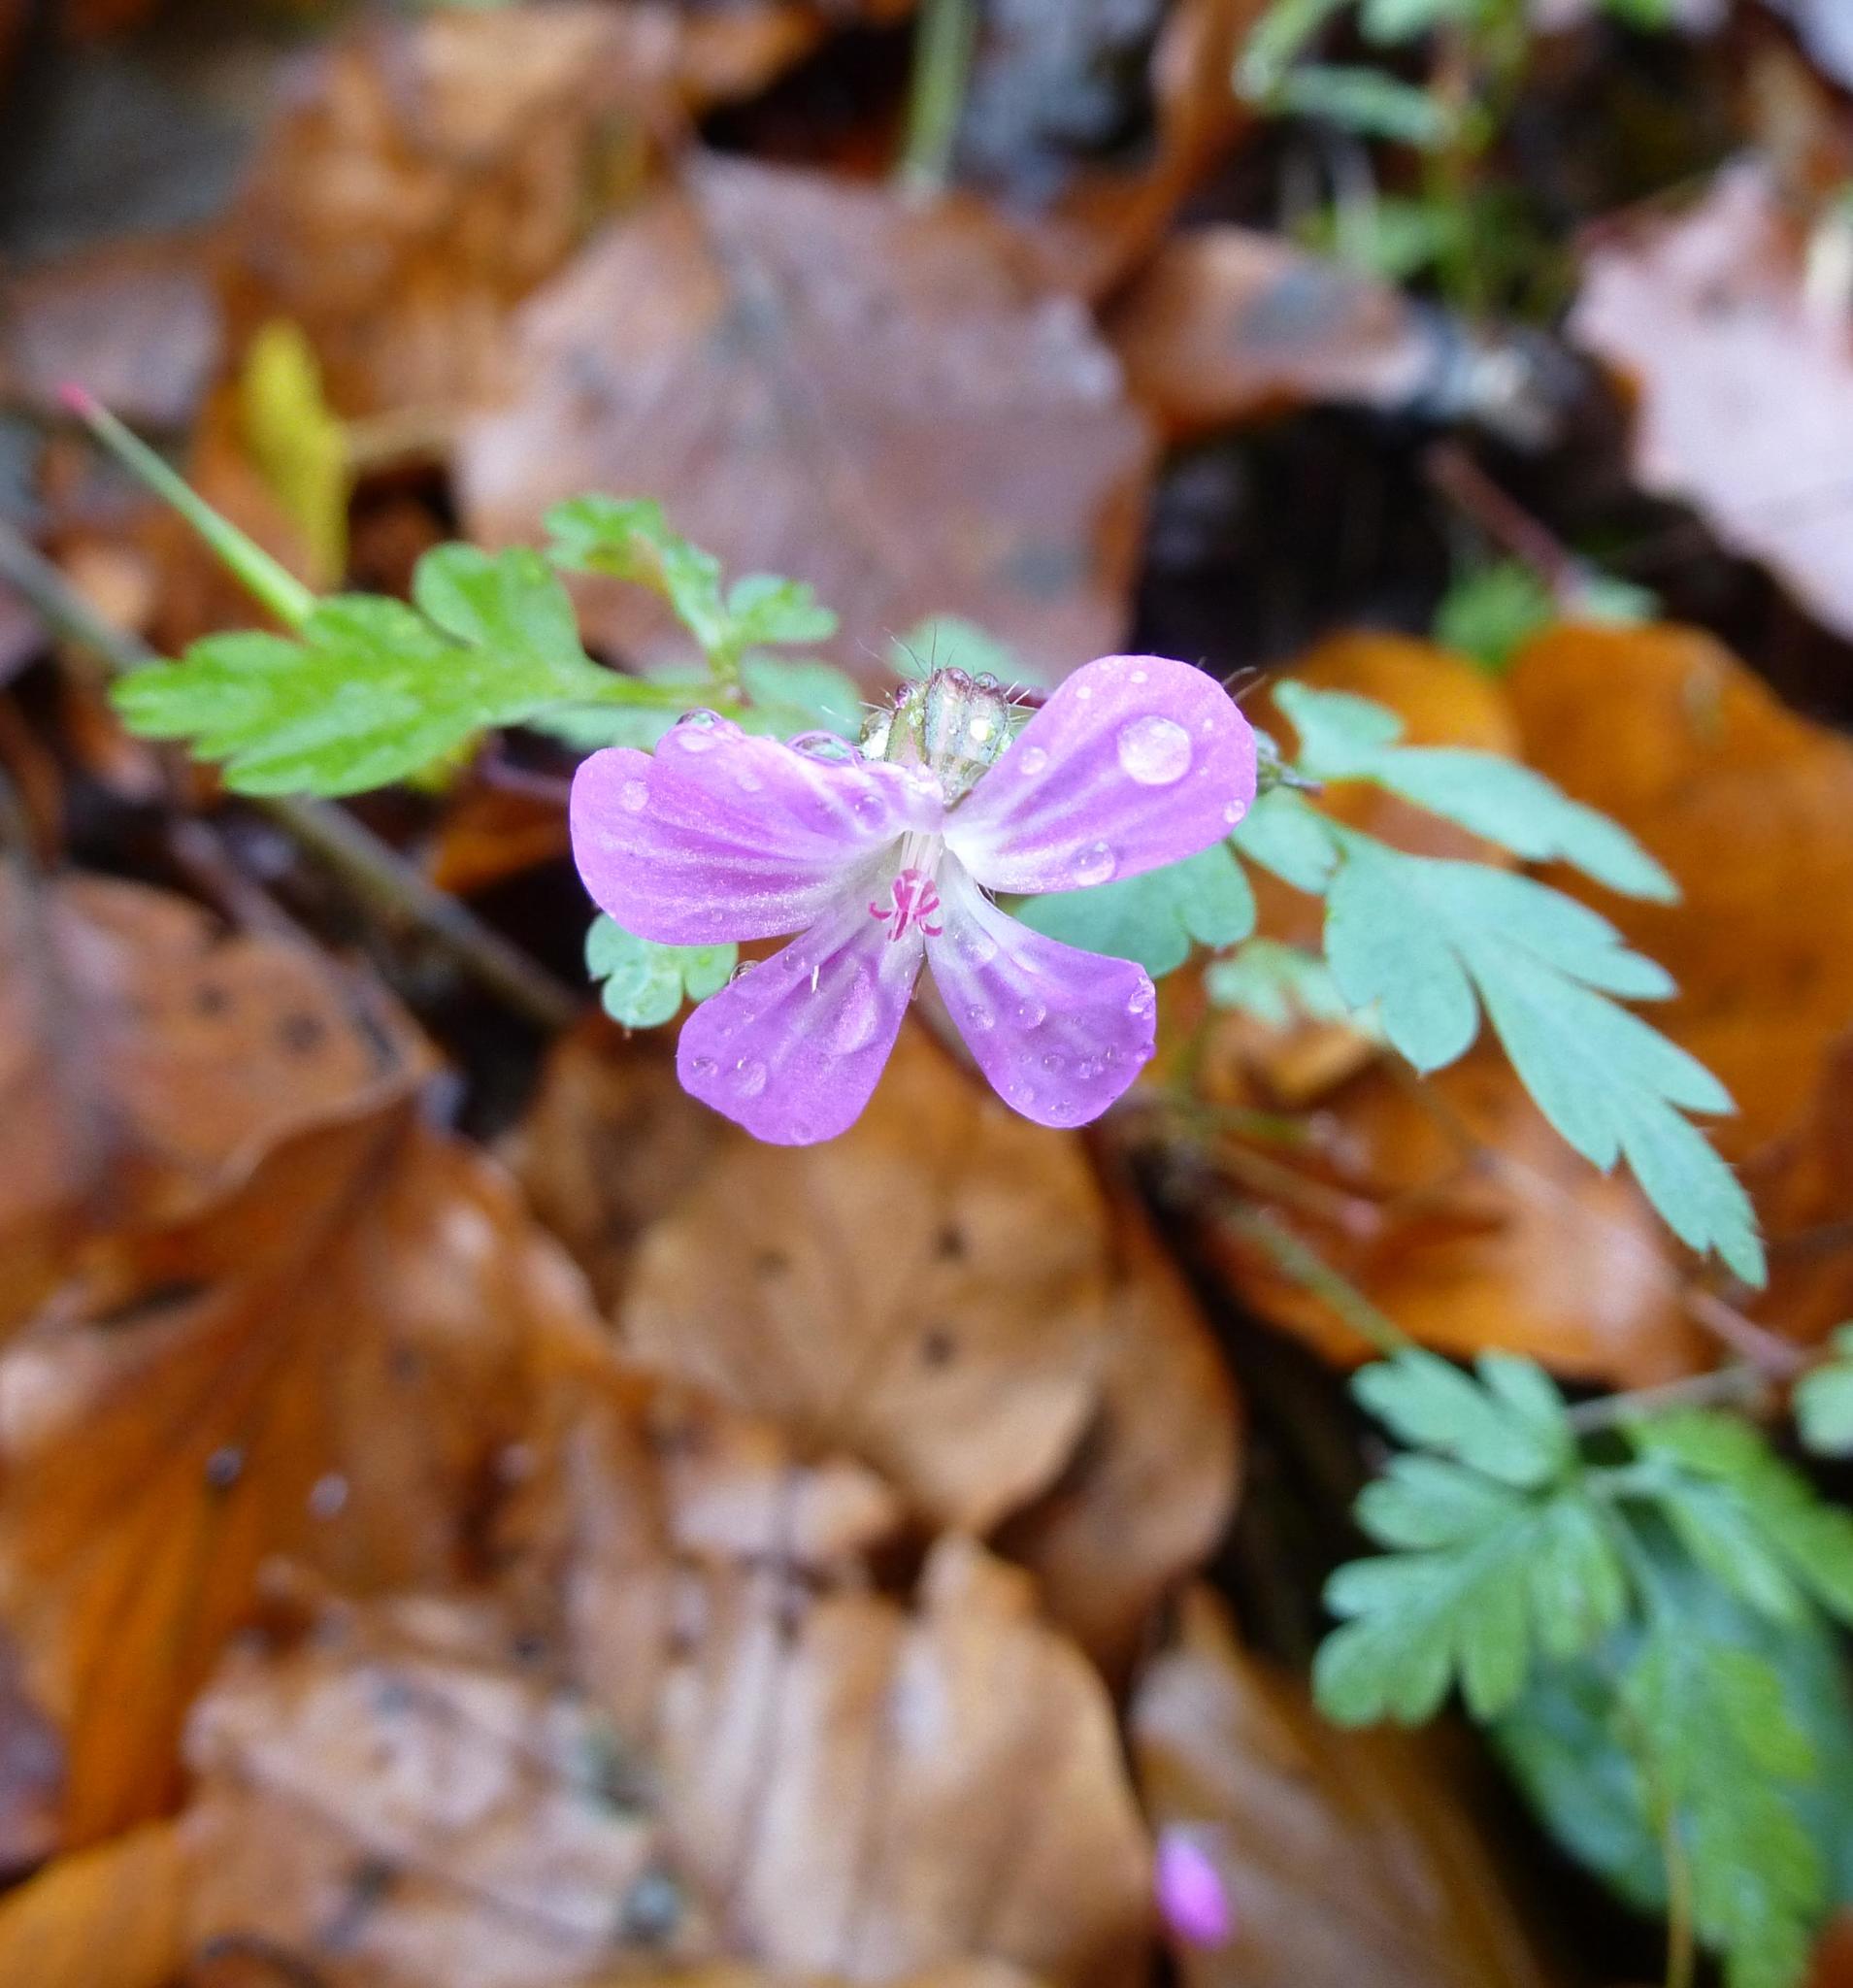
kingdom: Plantae
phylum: Tracheophyta
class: Magnoliopsida
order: Geraniales
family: Geraniaceae
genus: Geranium
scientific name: Geranium robertianum
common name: Herb-robert
